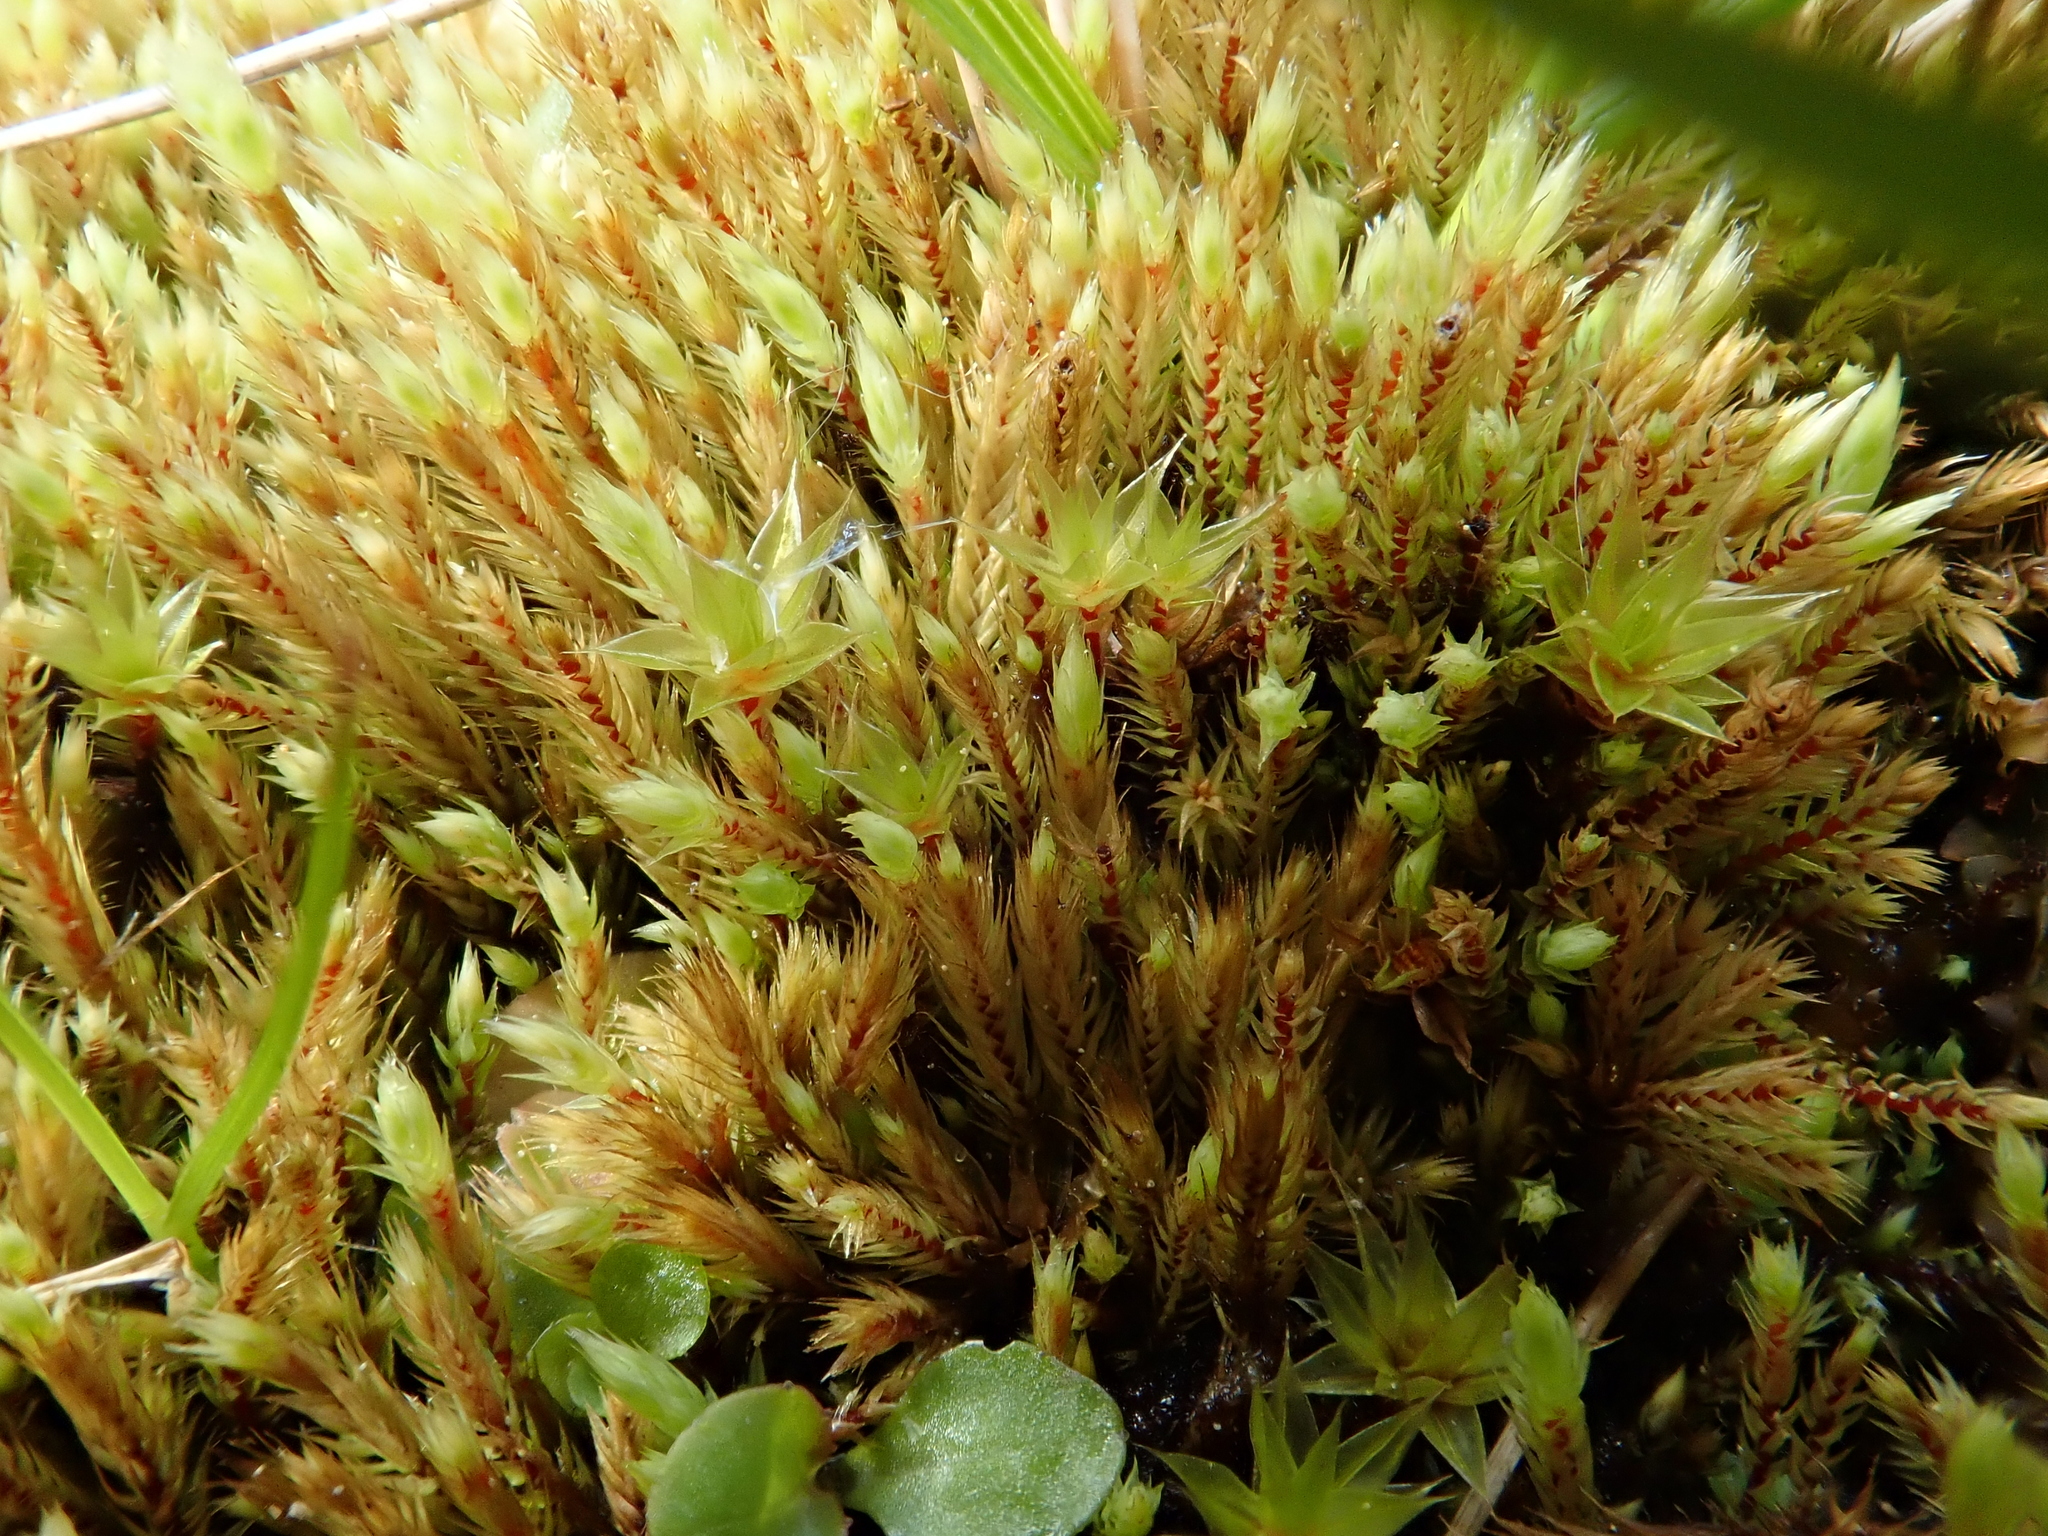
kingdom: Plantae
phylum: Bryophyta
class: Bryopsida
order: Bartramiales
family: Bartramiaceae
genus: Philonotis
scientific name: Philonotis marchica
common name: Bog apple moss
